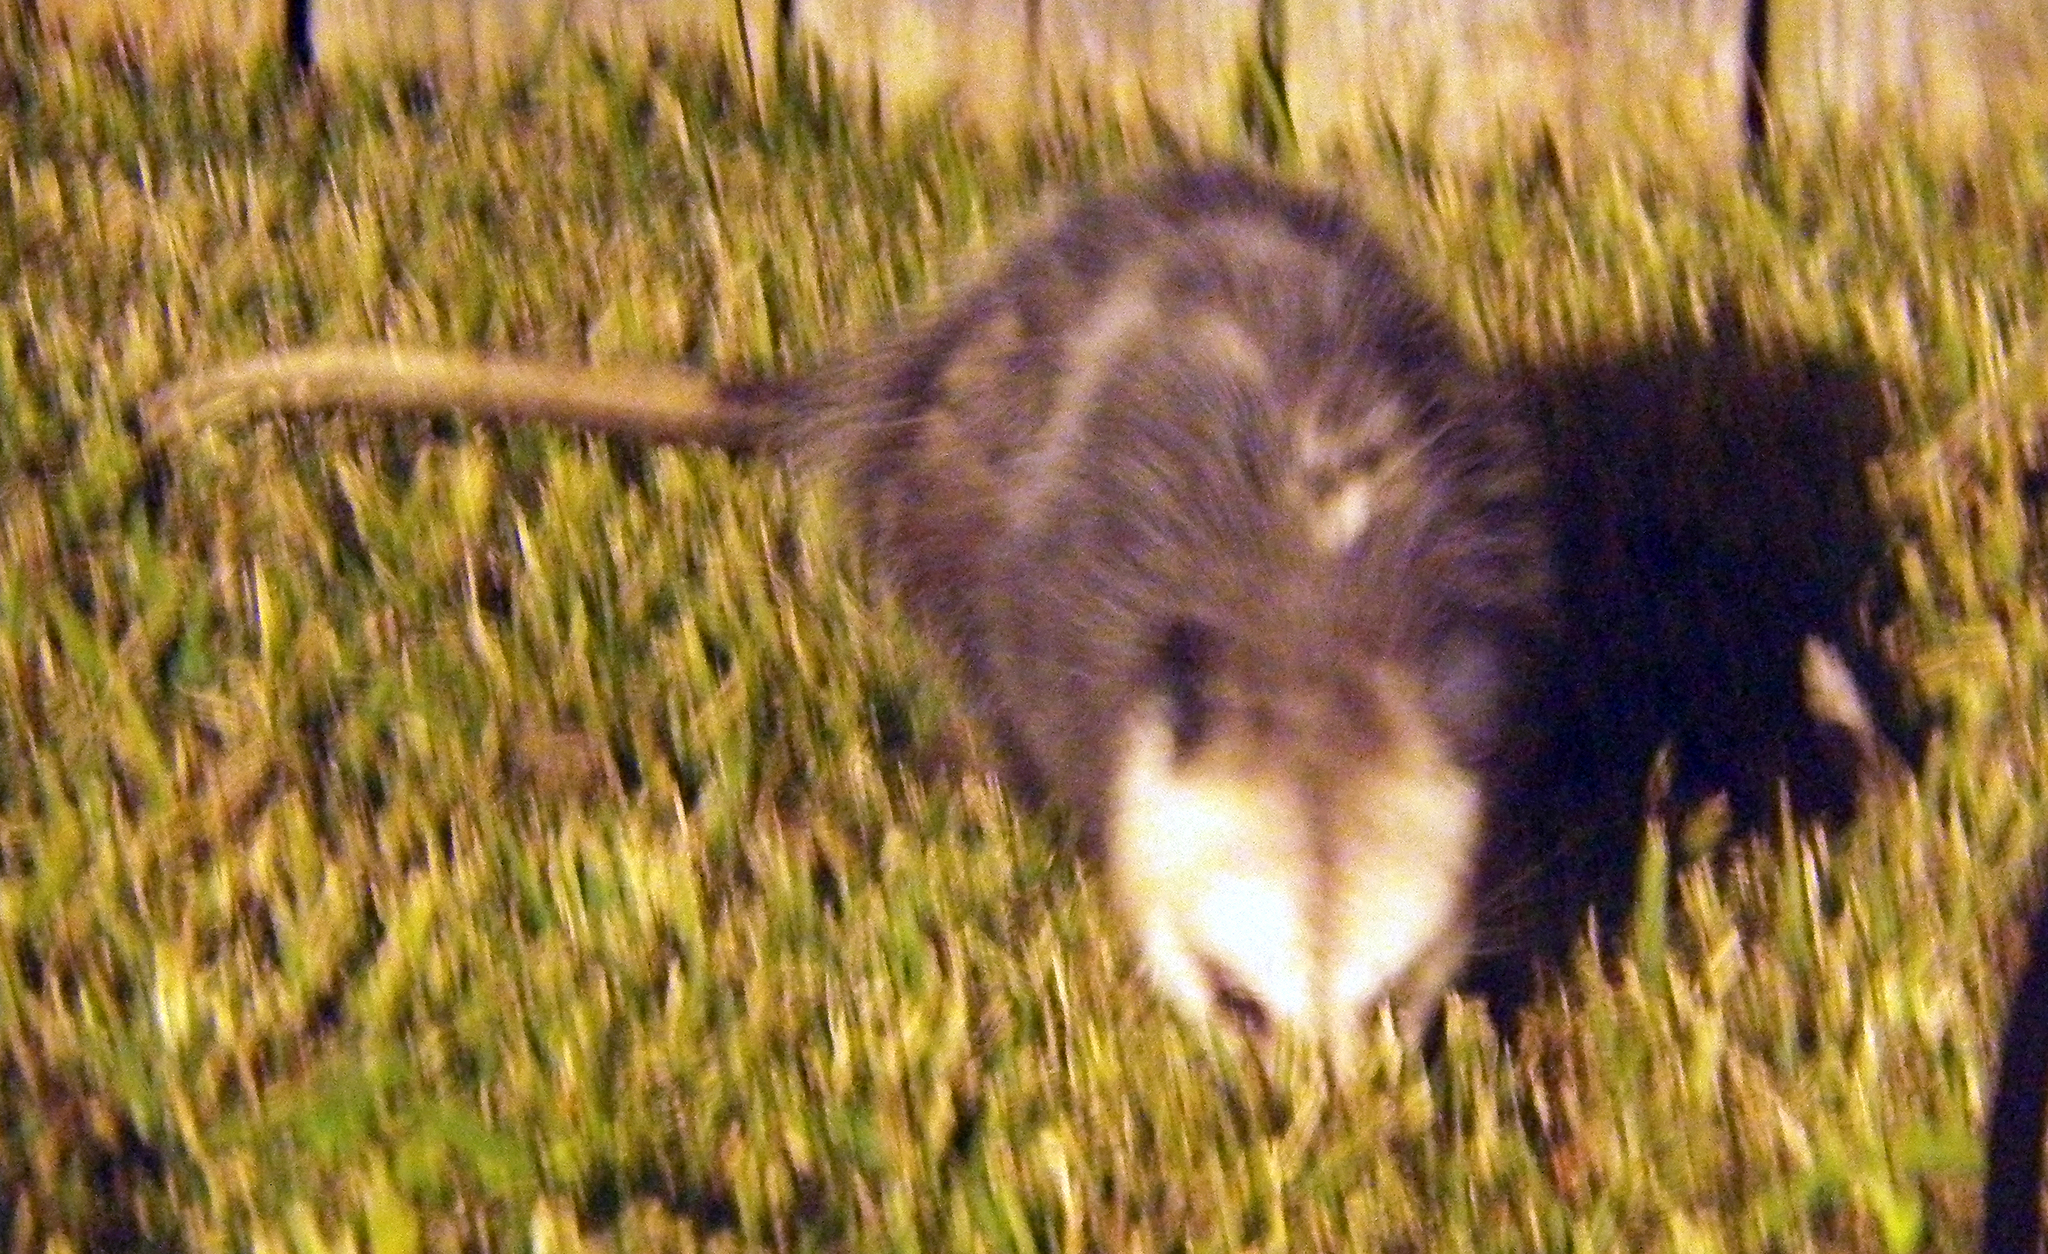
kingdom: Animalia
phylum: Chordata
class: Mammalia
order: Didelphimorphia
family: Didelphidae
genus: Didelphis
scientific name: Didelphis virginiana
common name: Virginia opossum
